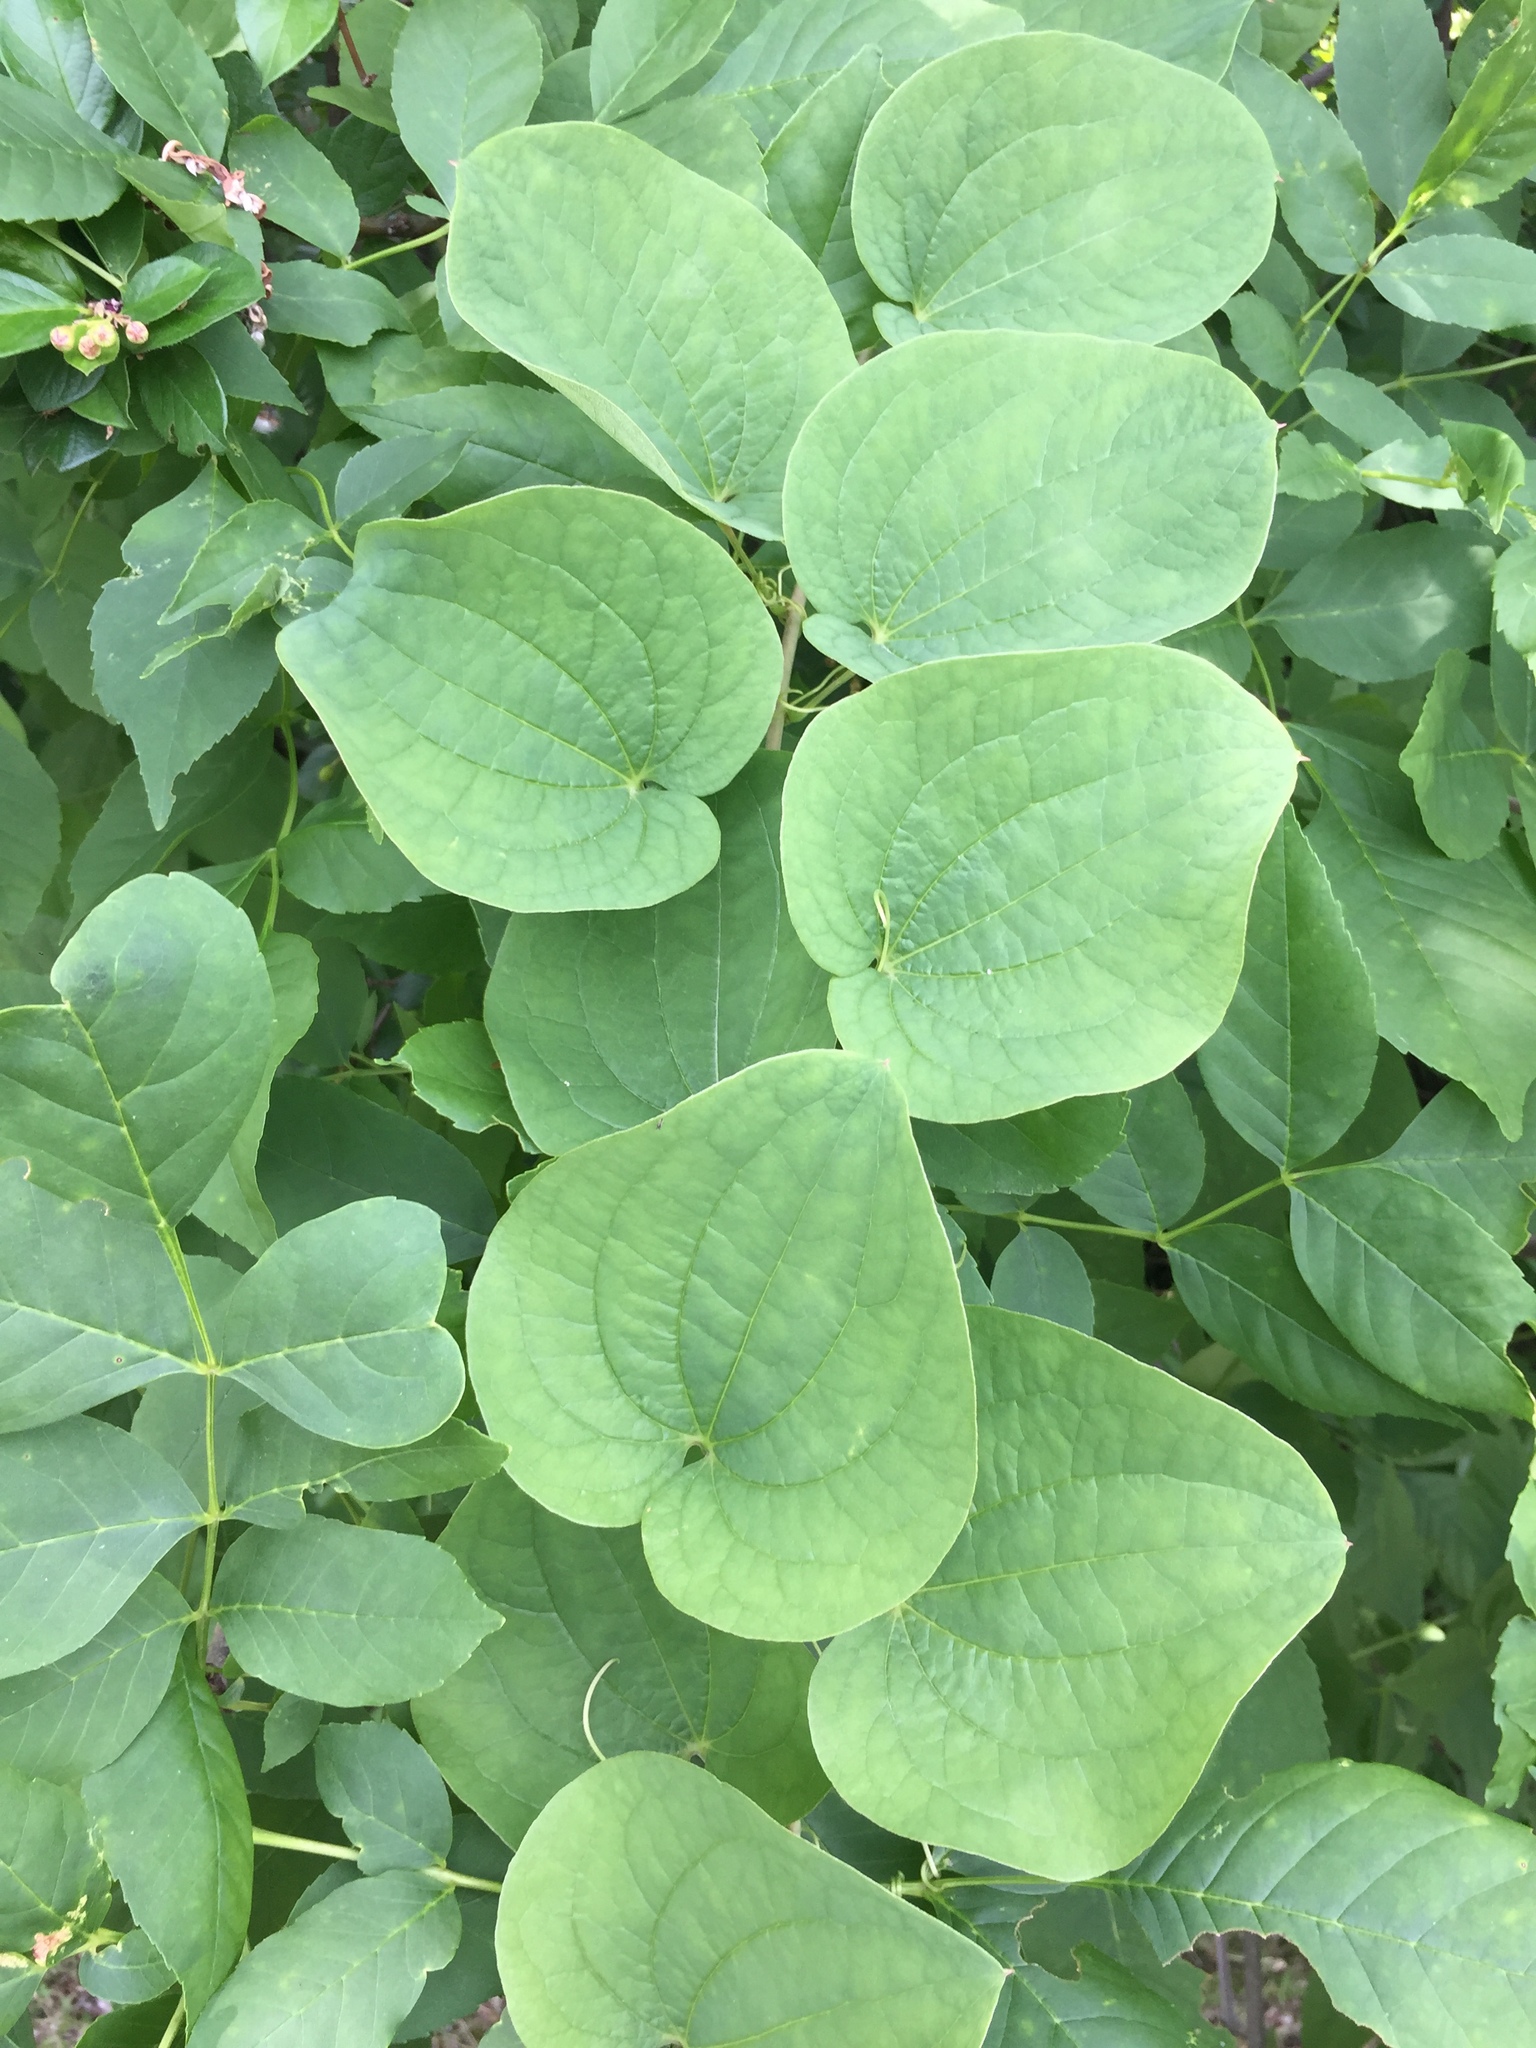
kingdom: Plantae
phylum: Tracheophyta
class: Liliopsida
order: Liliales
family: Smilacaceae
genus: Smilax
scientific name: Smilax lasioneura
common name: Blue ridge carrionflower
